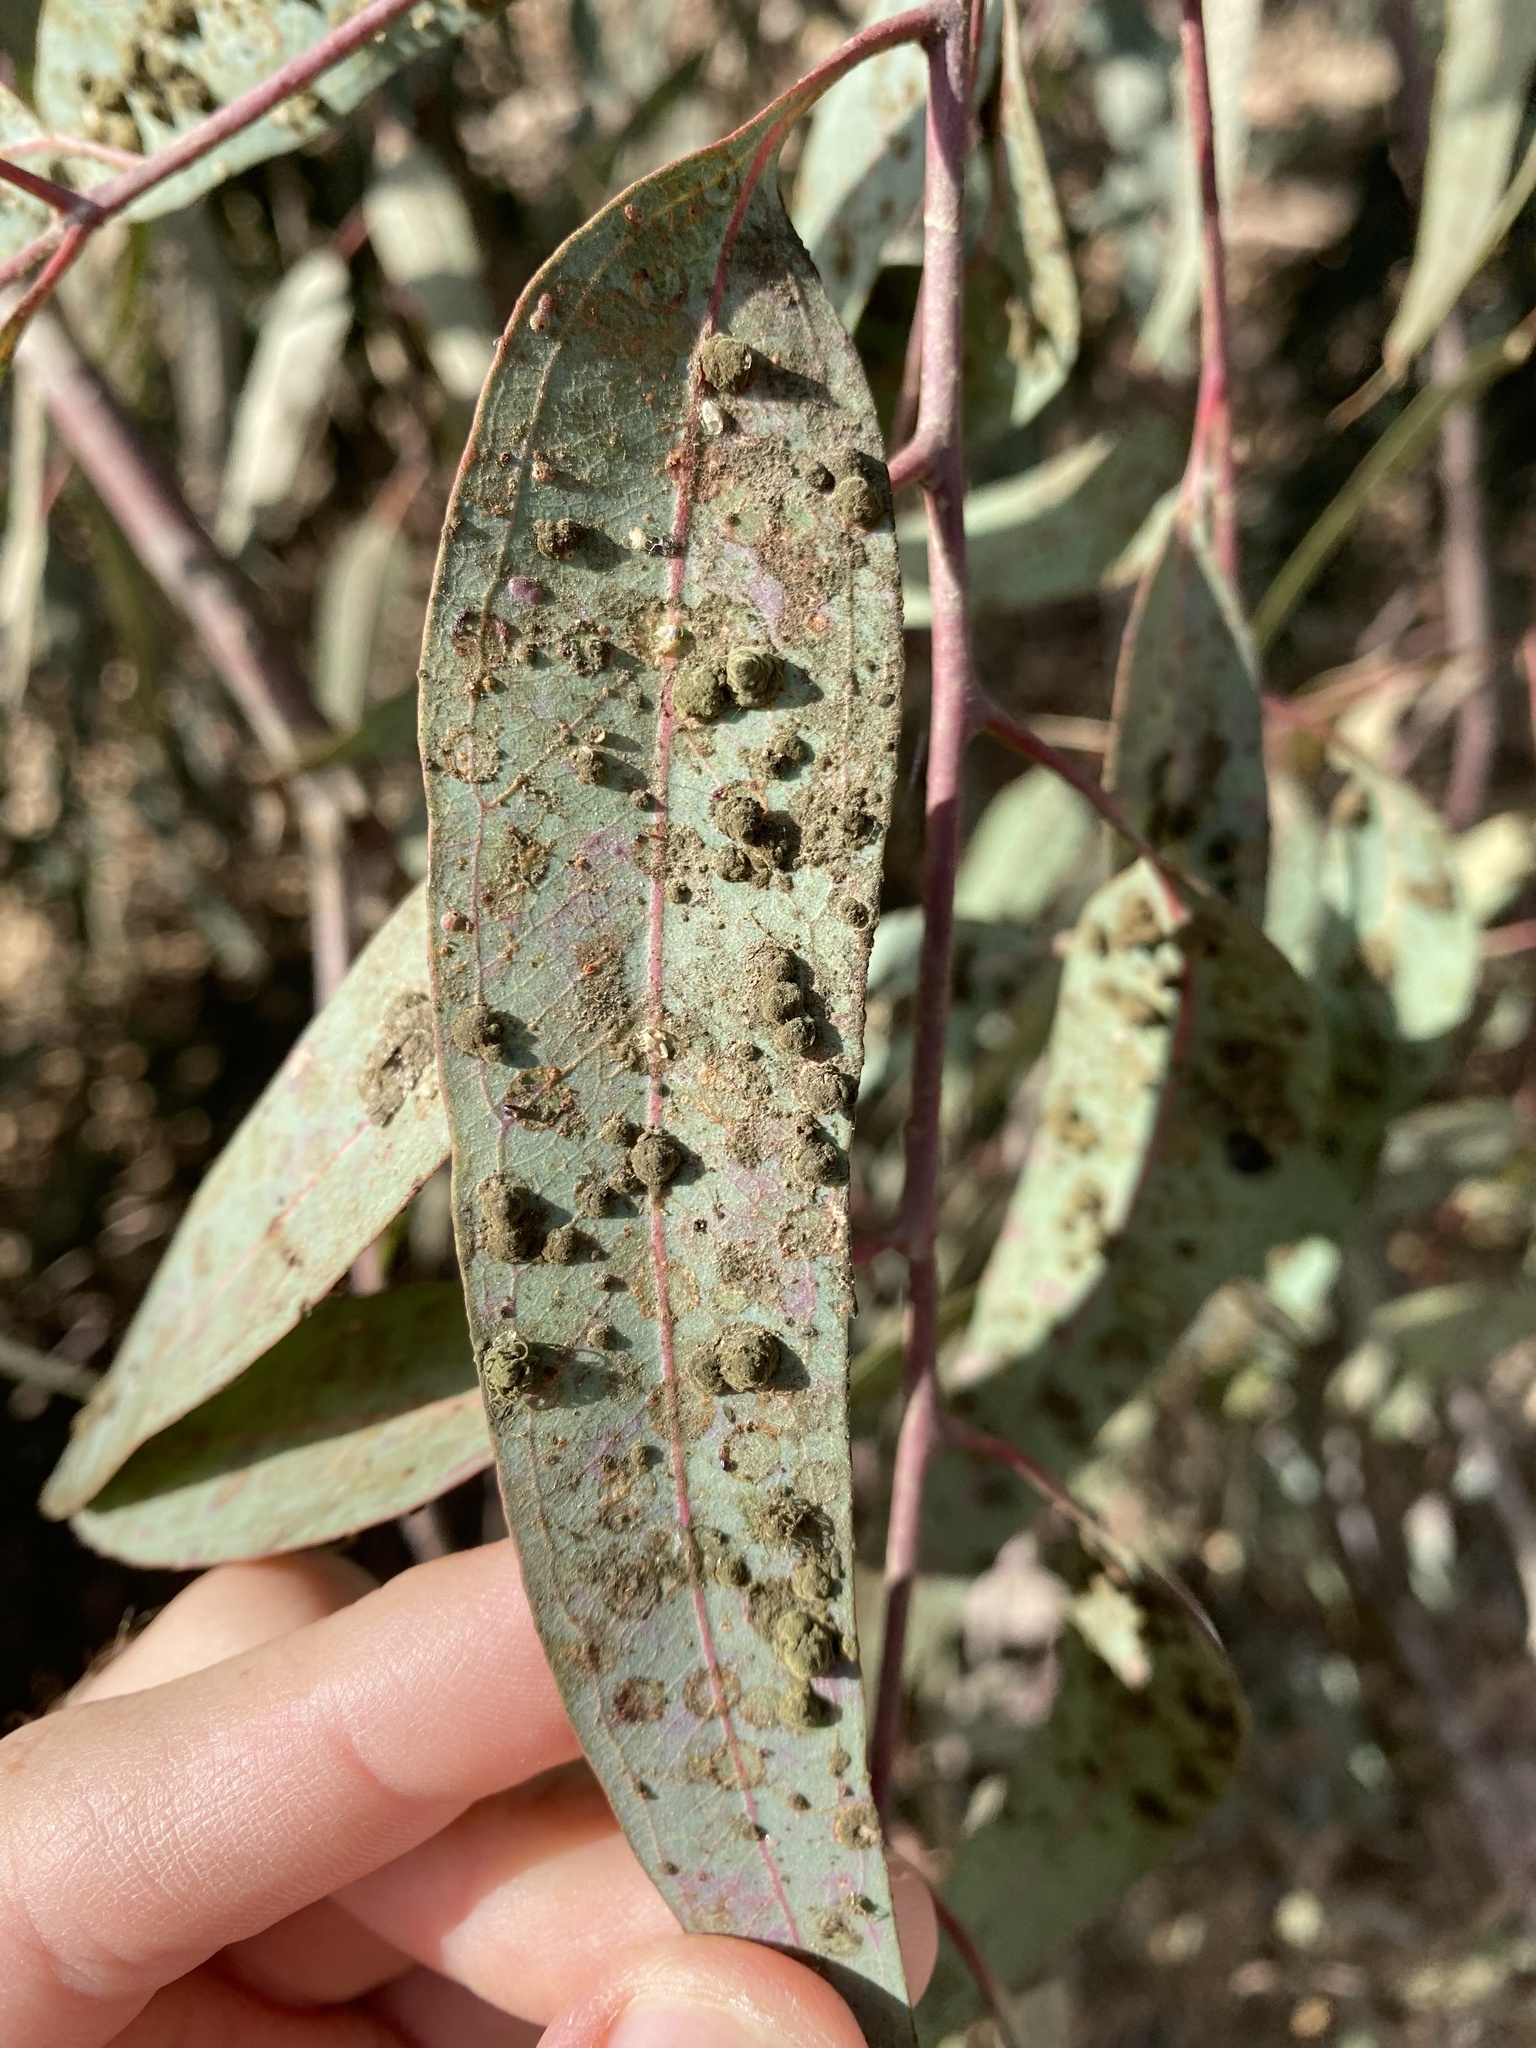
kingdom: Animalia
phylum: Arthropoda
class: Insecta
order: Hemiptera
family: Aphalaridae
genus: Glycaspis
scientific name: Glycaspis brimblecombei
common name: Red gum lerp psyllid
